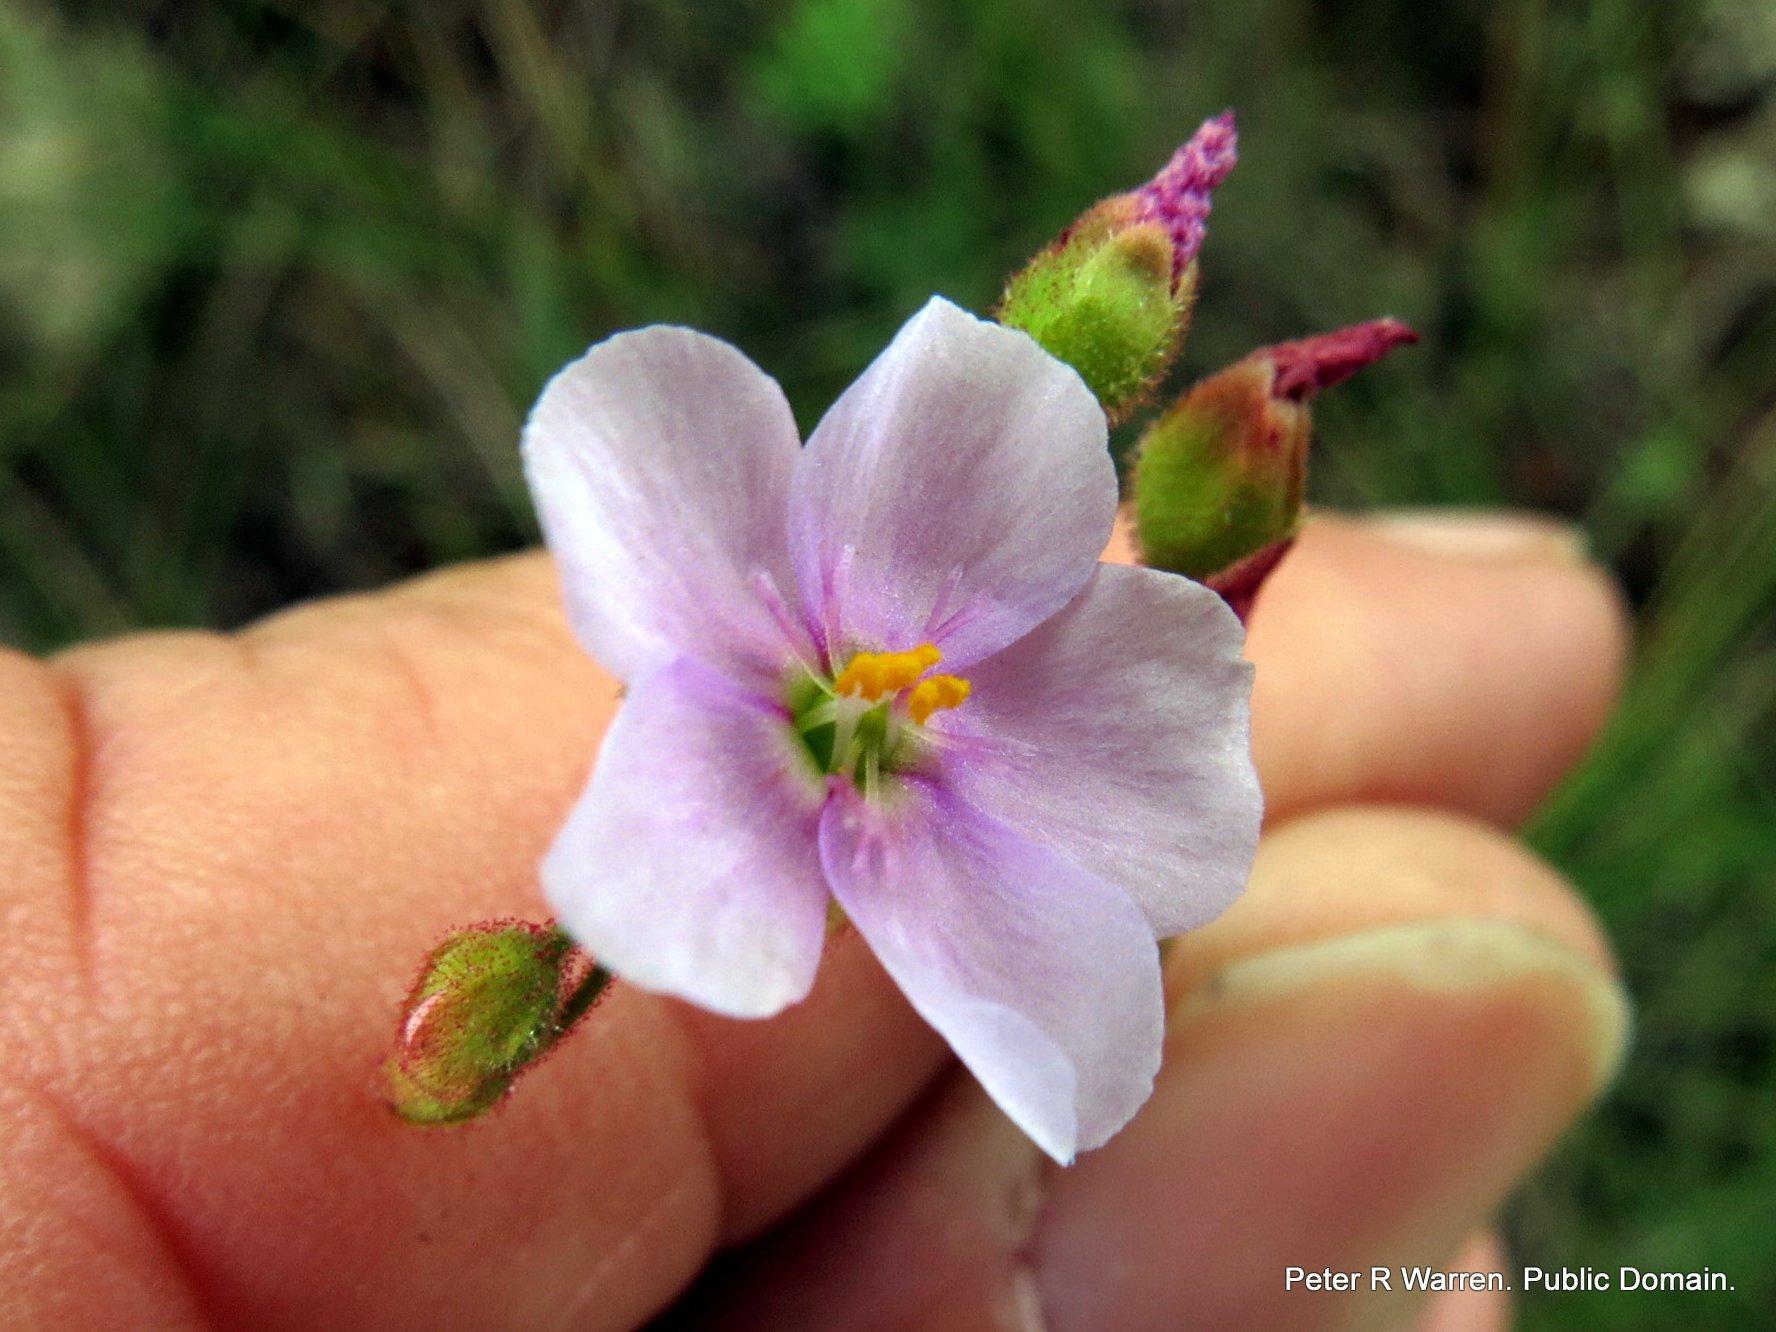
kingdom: Plantae
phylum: Tracheophyta
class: Magnoliopsida
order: Caryophyllales
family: Droseraceae
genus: Drosera
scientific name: Drosera natalensis
